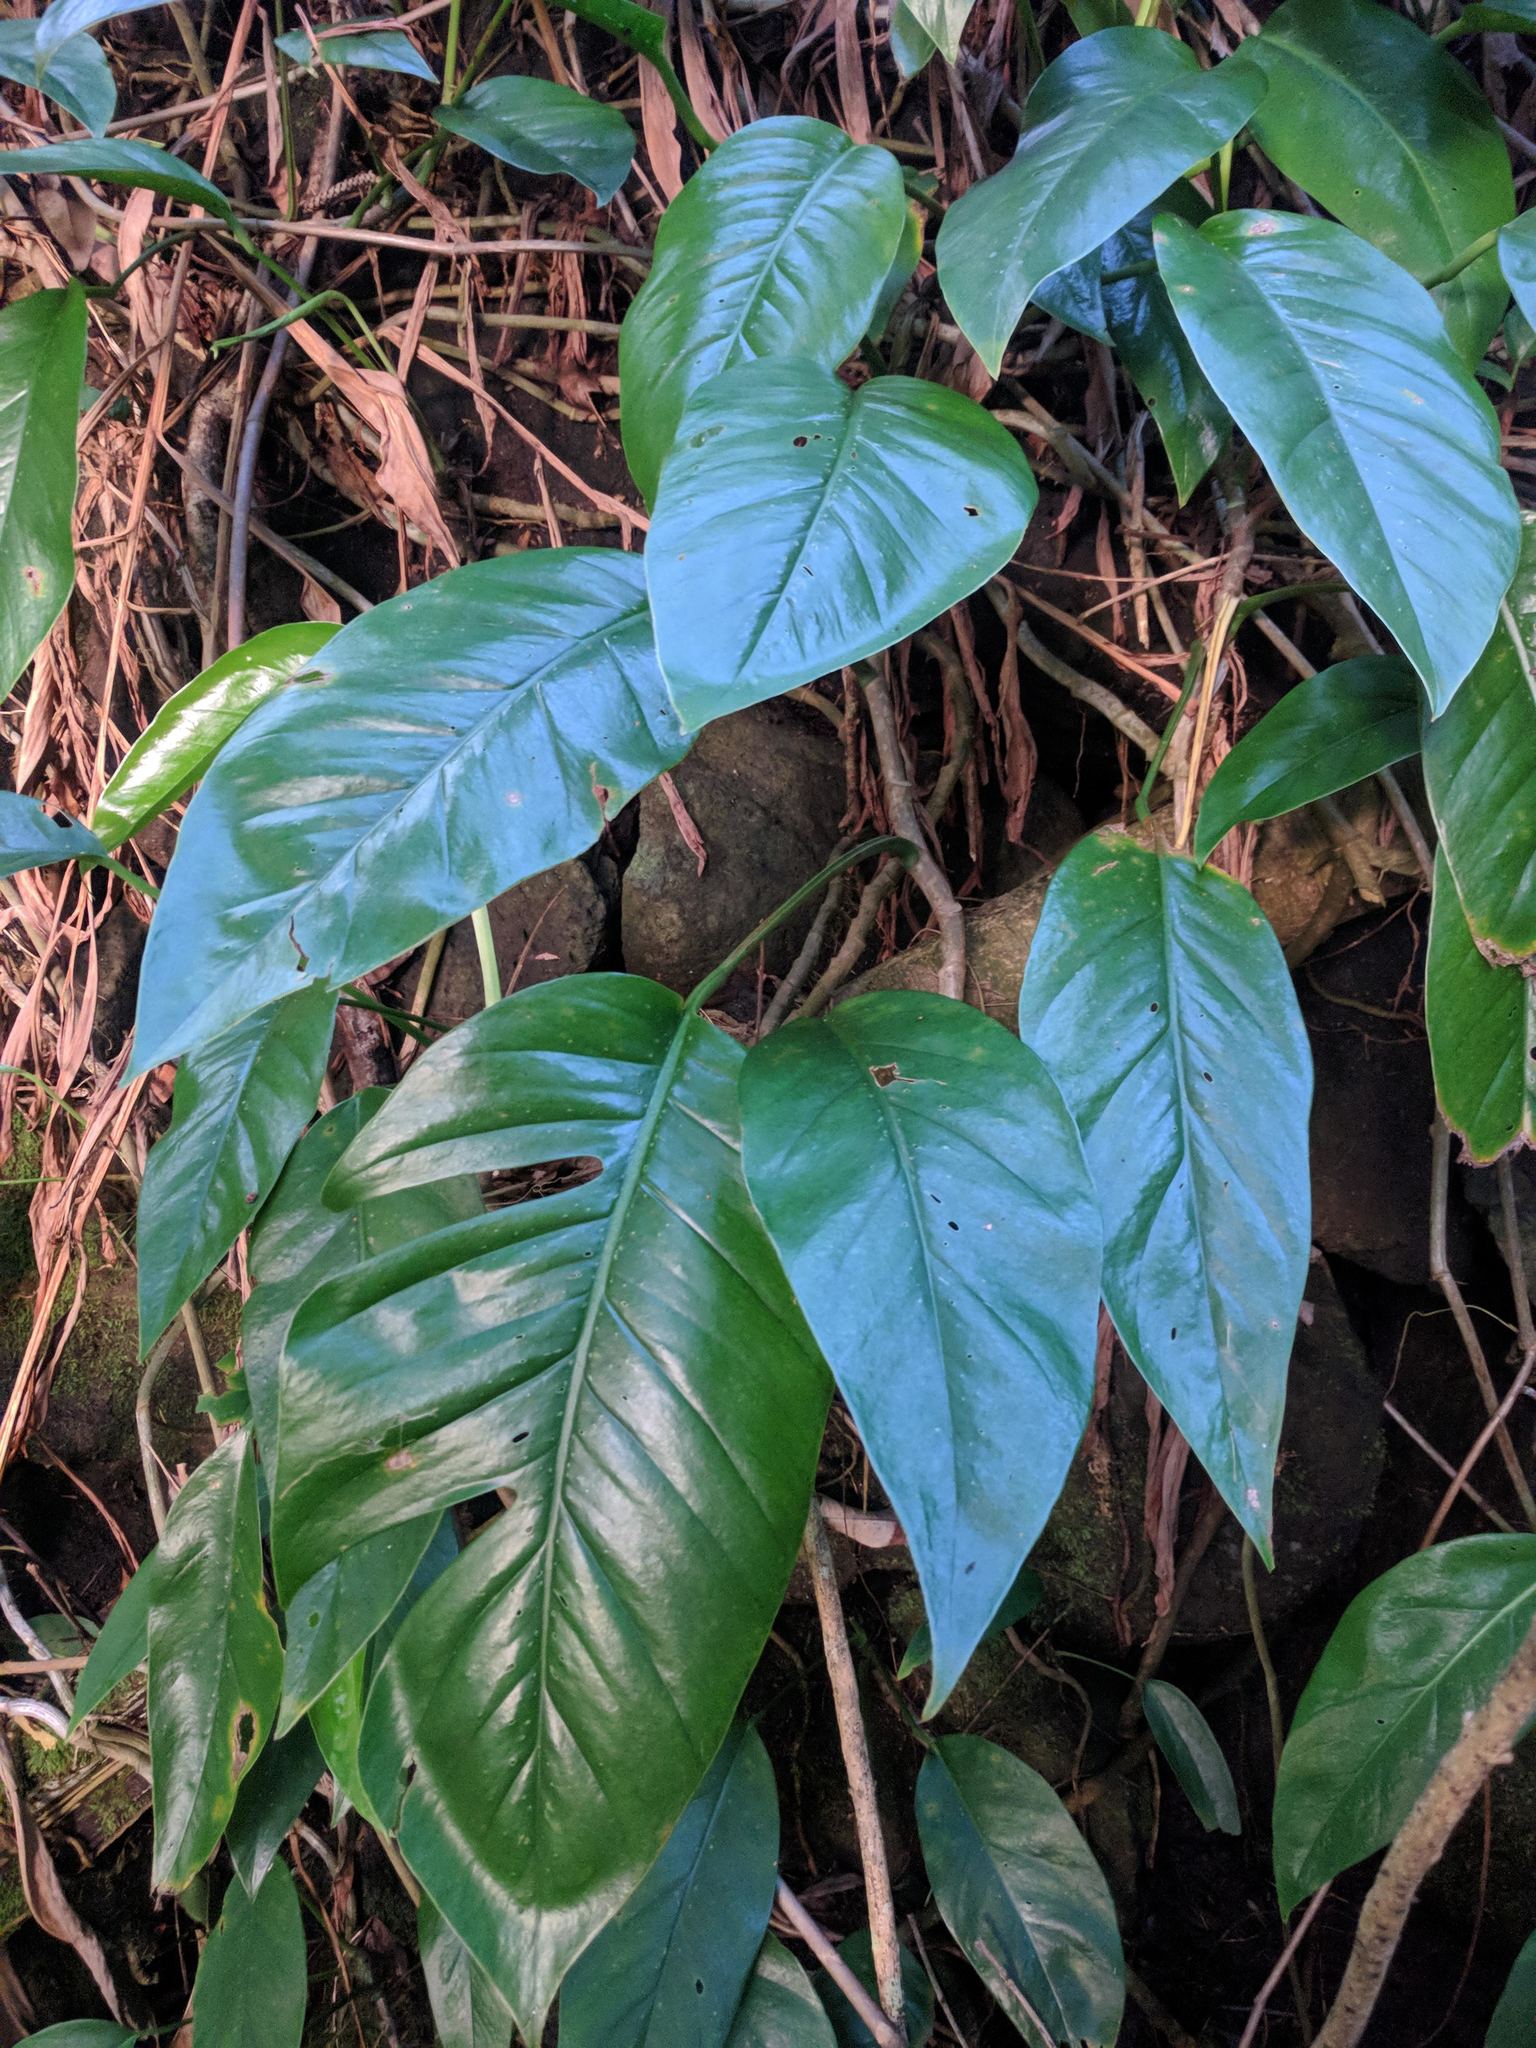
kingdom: Plantae
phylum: Tracheophyta
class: Liliopsida
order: Alismatales
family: Araceae
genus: Epipremnum
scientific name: Epipremnum pinnatum
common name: Centipede tongavine
